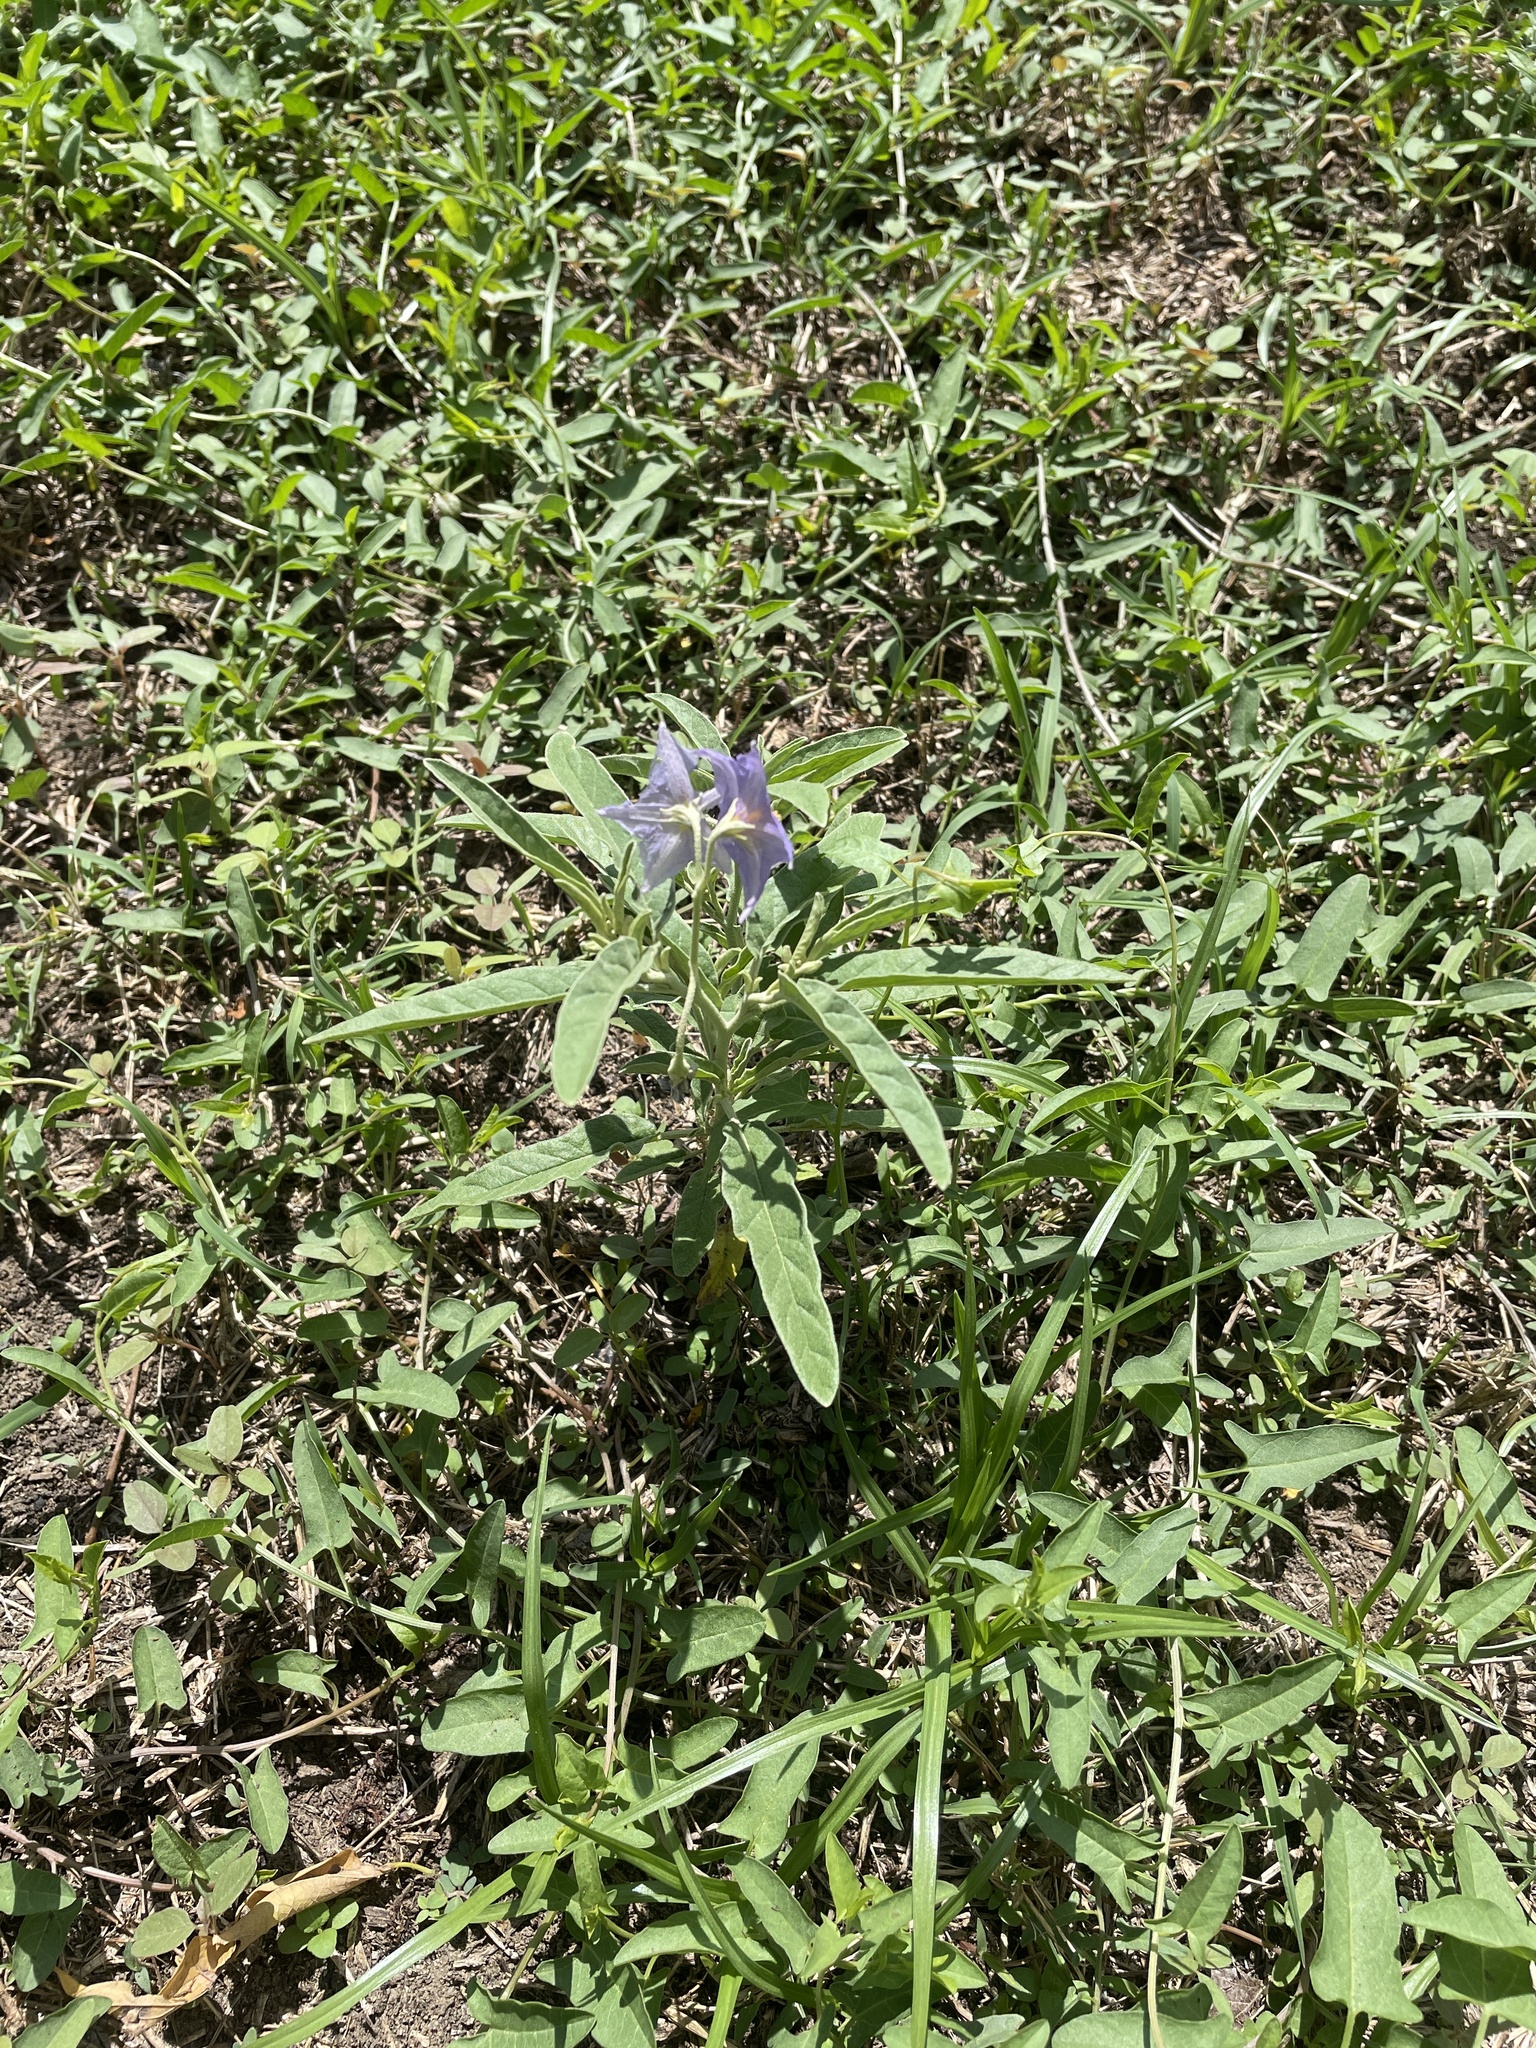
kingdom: Plantae
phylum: Tracheophyta
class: Magnoliopsida
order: Solanales
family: Solanaceae
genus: Solanum
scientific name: Solanum elaeagnifolium
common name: Silverleaf nightshade
